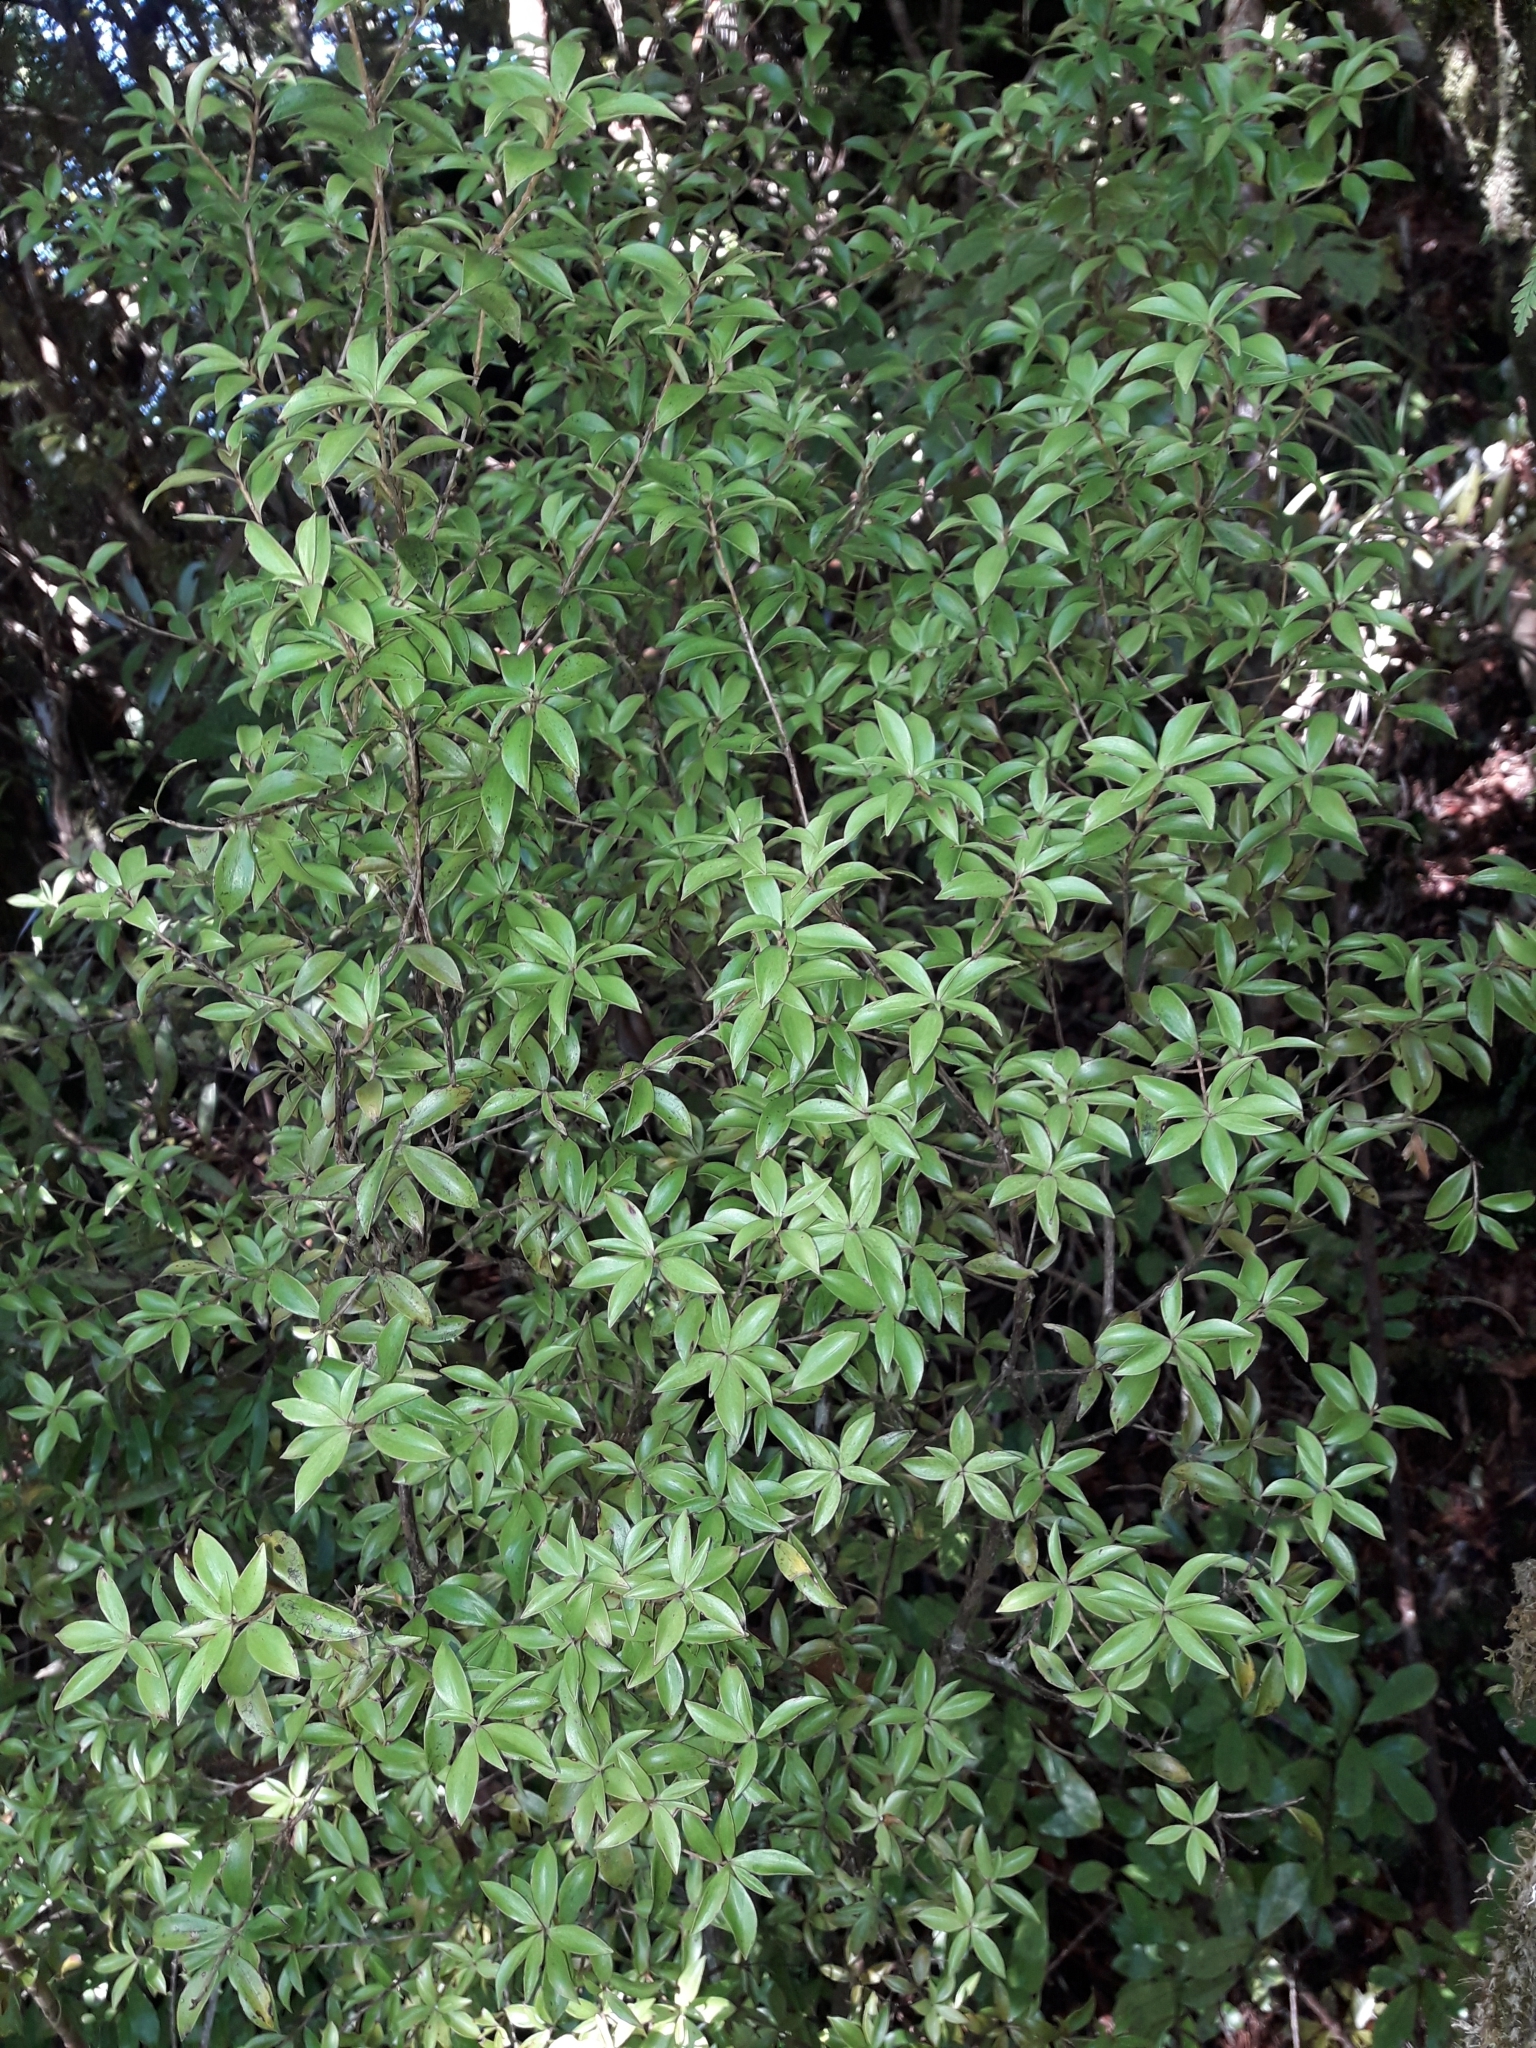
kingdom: Plantae
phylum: Tracheophyta
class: Magnoliopsida
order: Ericales
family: Ericaceae
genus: Archeria
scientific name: Archeria racemosa
